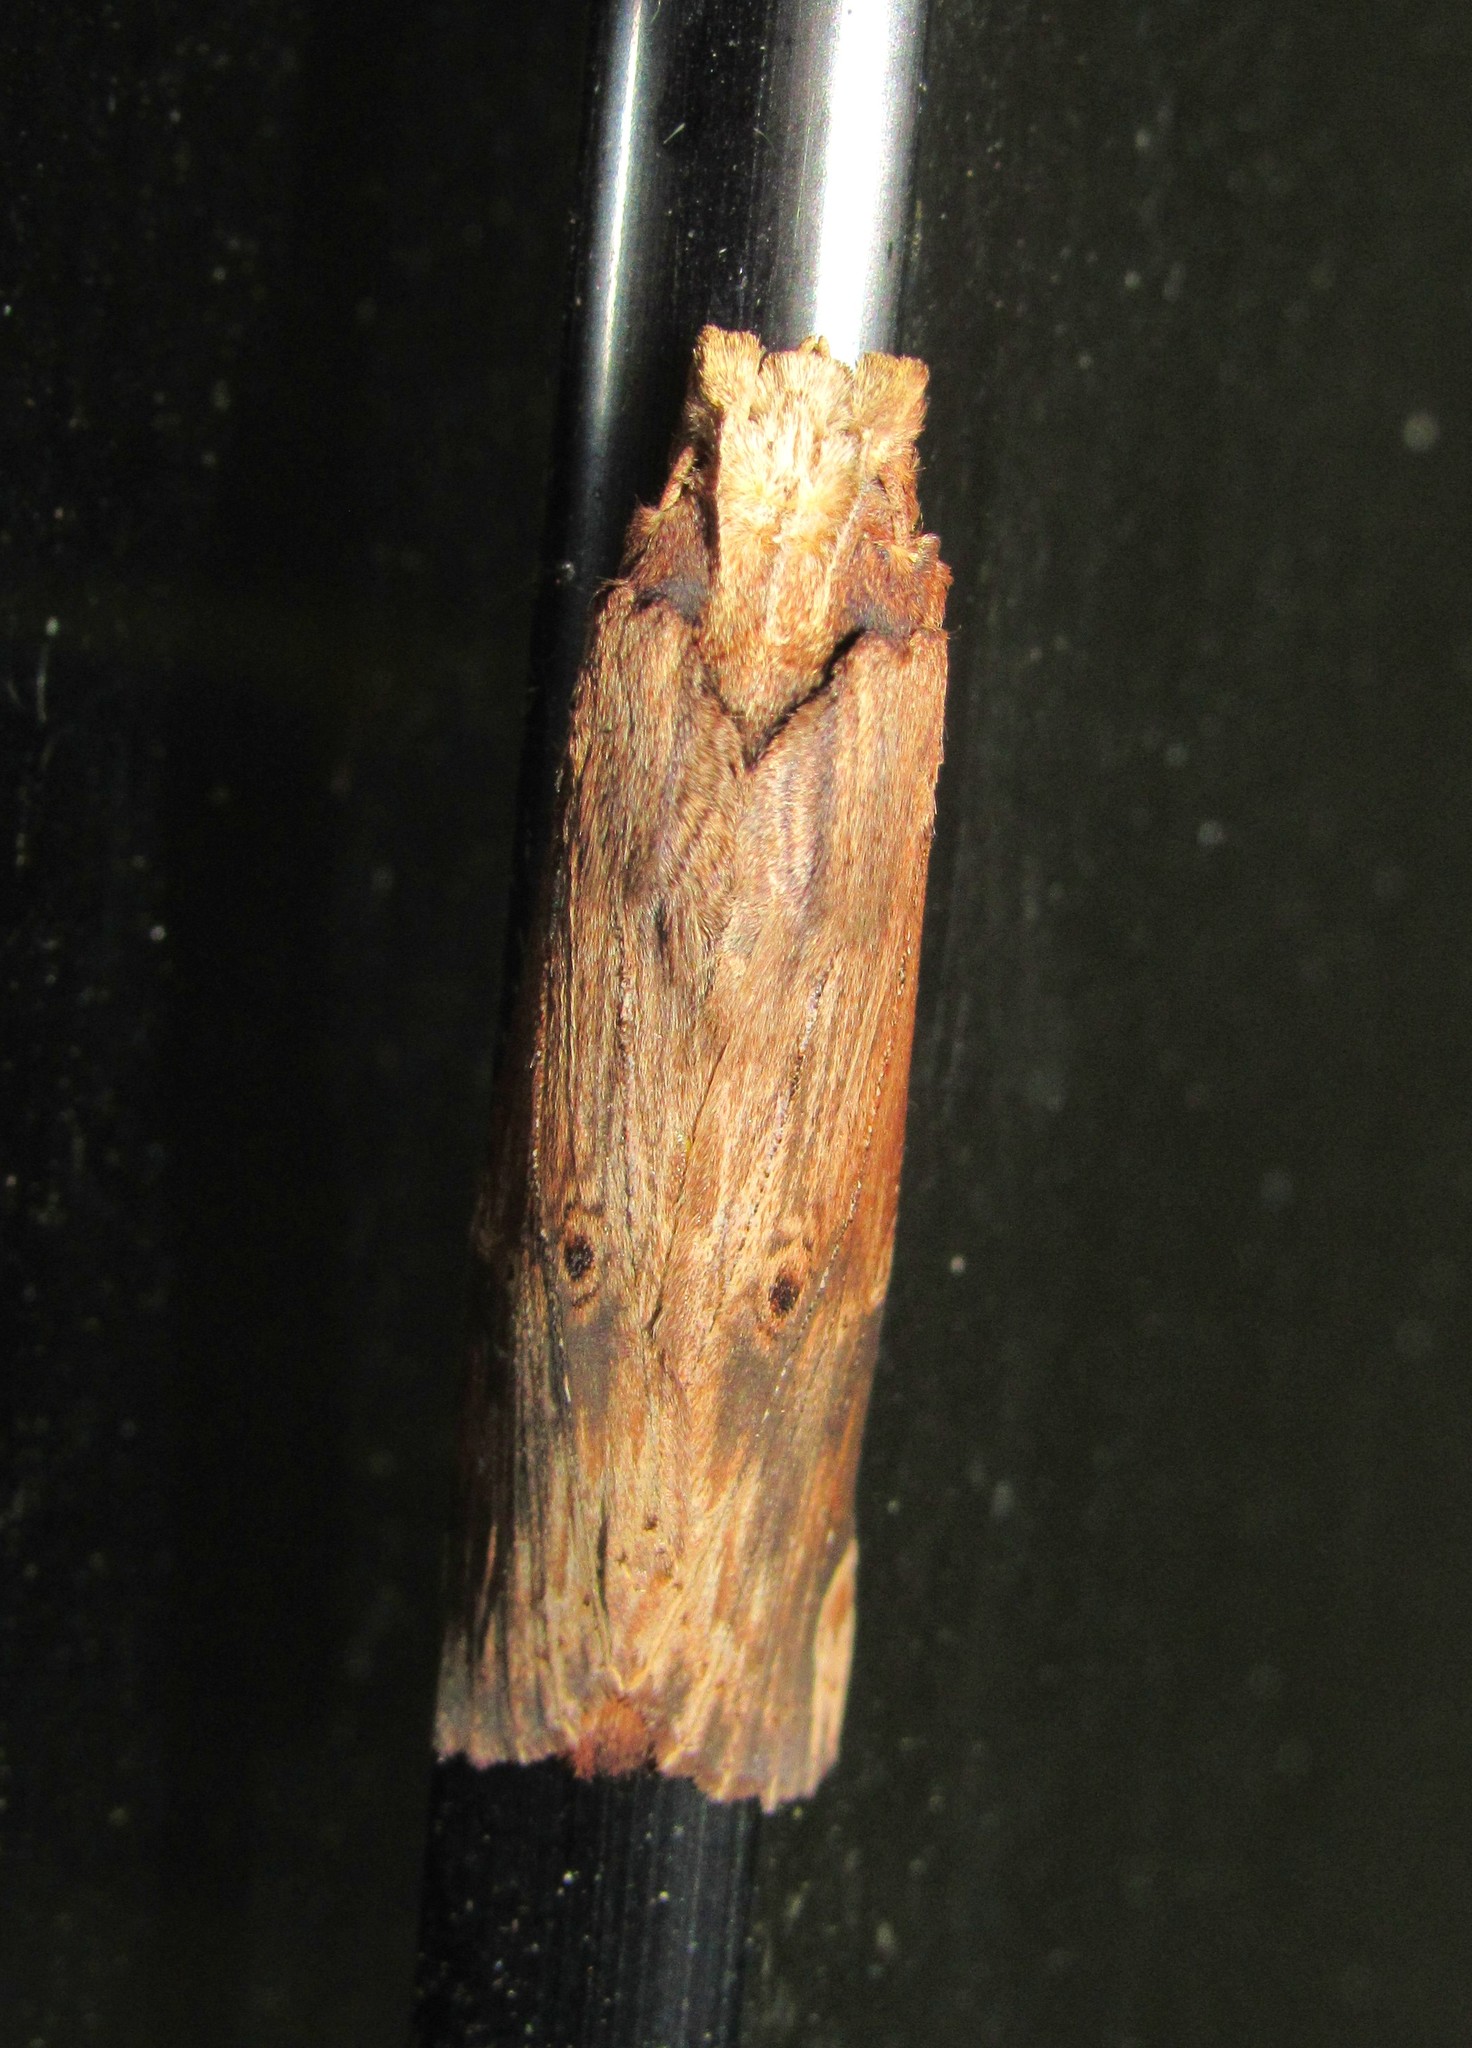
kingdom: Animalia
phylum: Arthropoda
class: Insecta
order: Lepidoptera
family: Notodontidae
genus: Nystalea
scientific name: Nystalea ebalea
